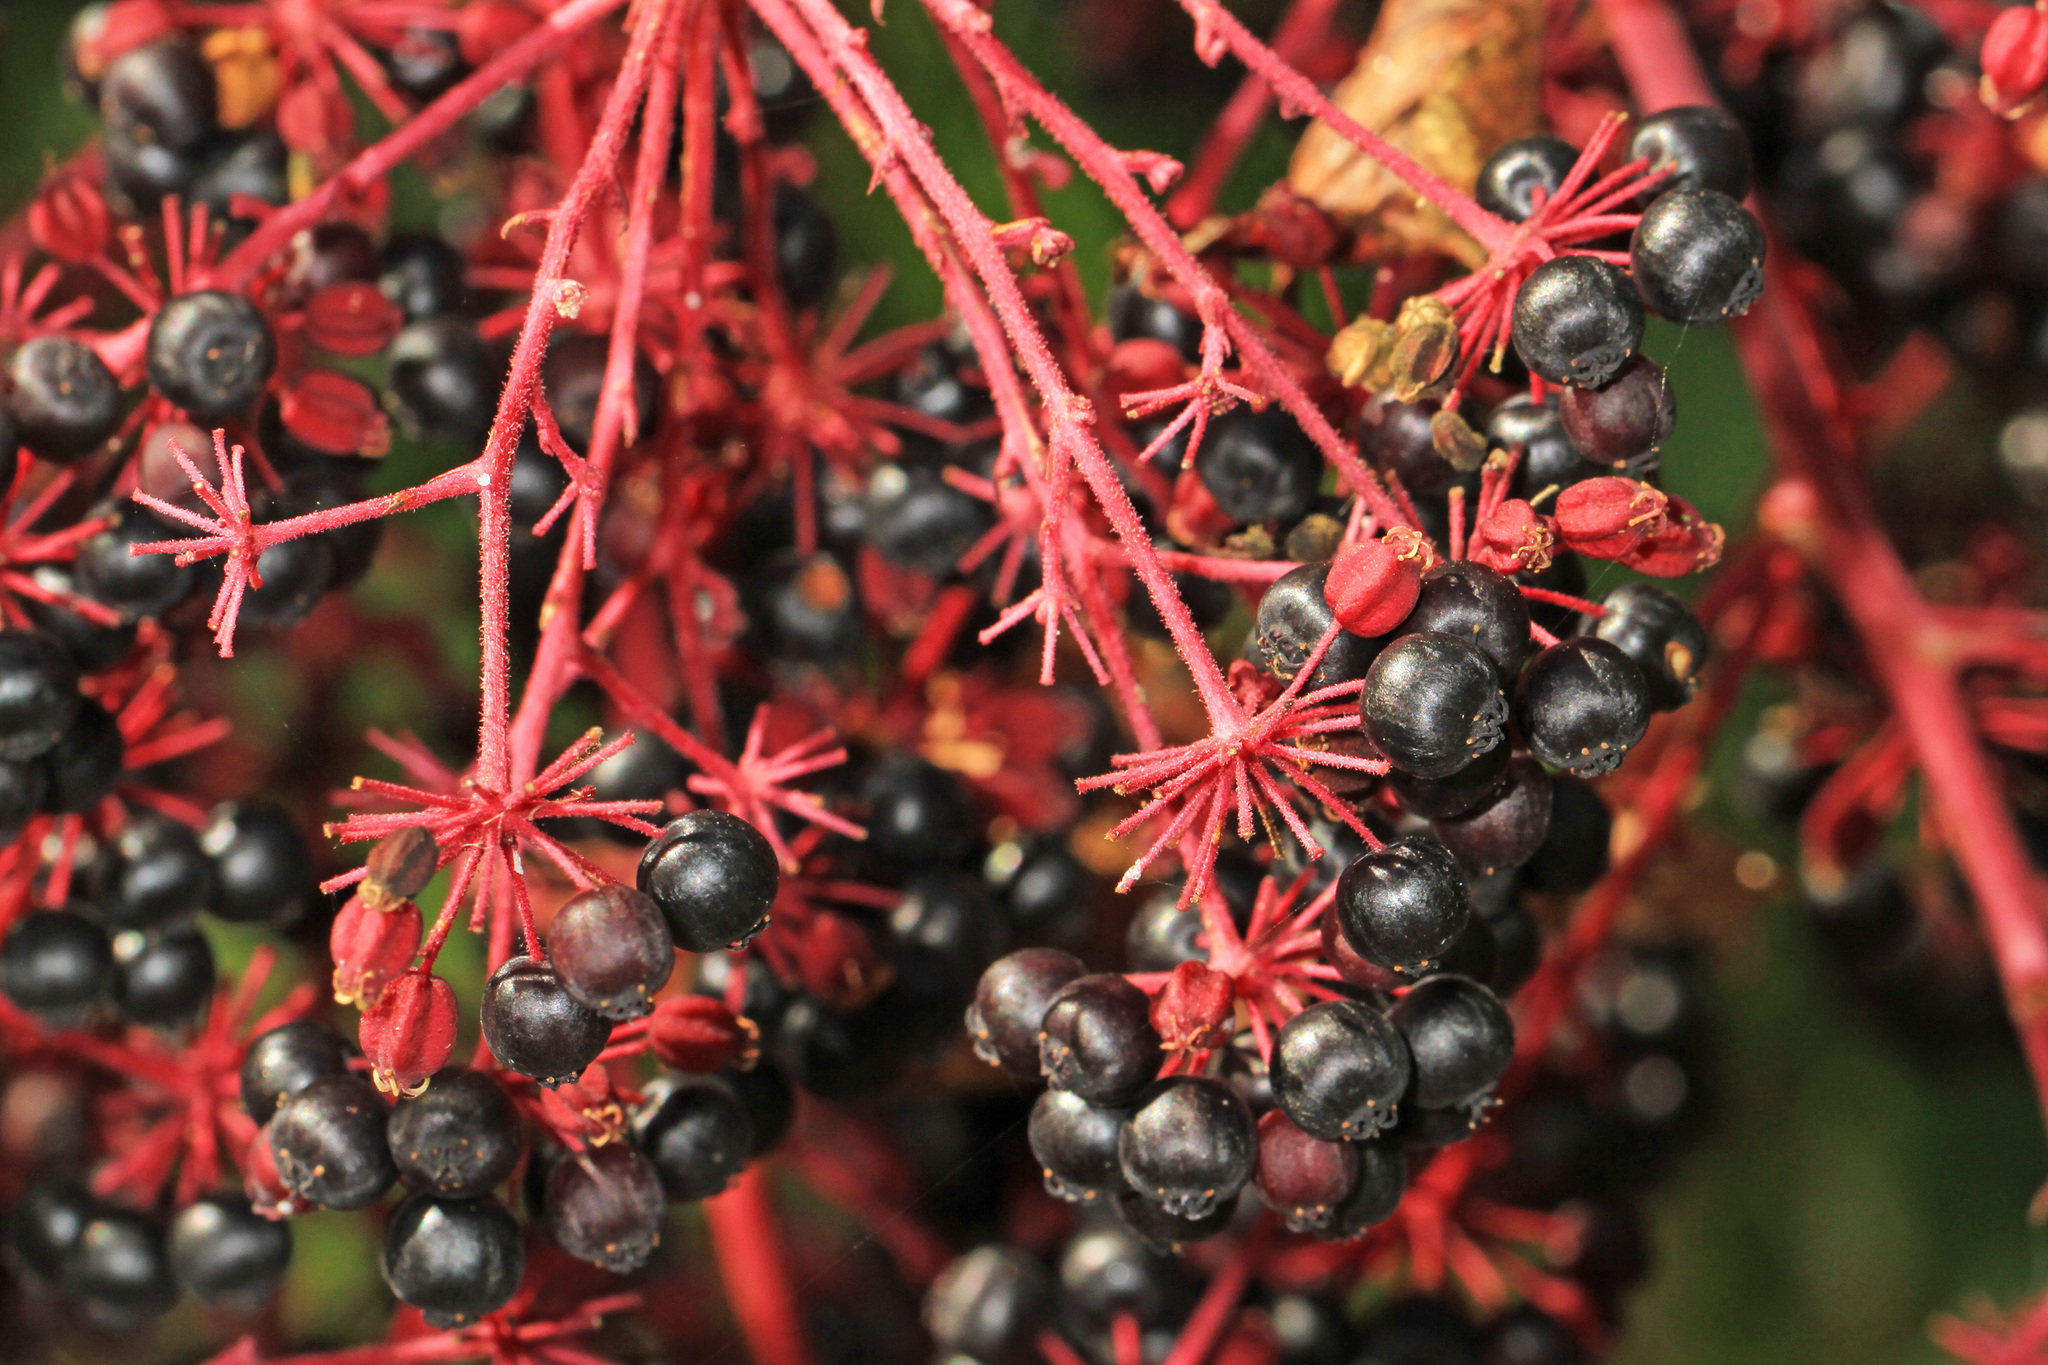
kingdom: Plantae
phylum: Tracheophyta
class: Magnoliopsida
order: Apiales
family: Araliaceae
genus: Aralia
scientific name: Aralia spinosa
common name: Hercules'-club
